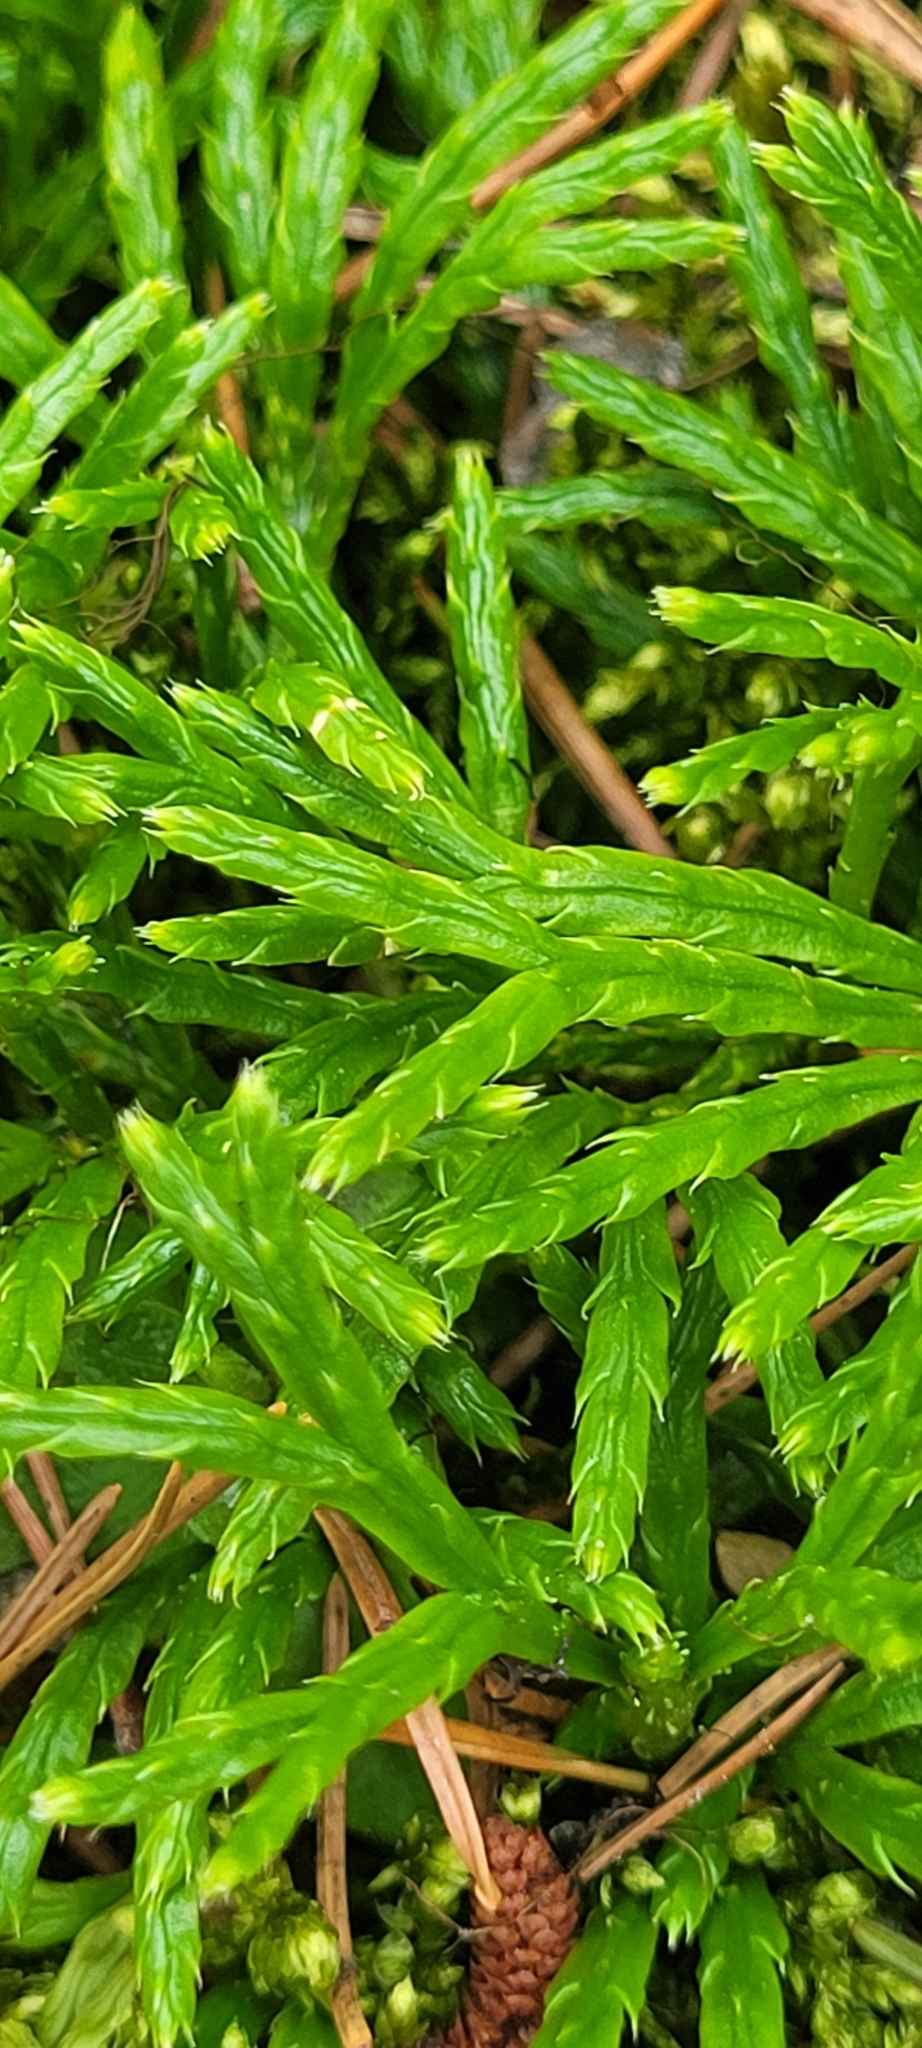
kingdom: Plantae
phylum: Tracheophyta
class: Lycopodiopsida
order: Lycopodiales
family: Lycopodiaceae
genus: Diphasiastrum
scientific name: Diphasiastrum complanatum
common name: Northern running-pine
